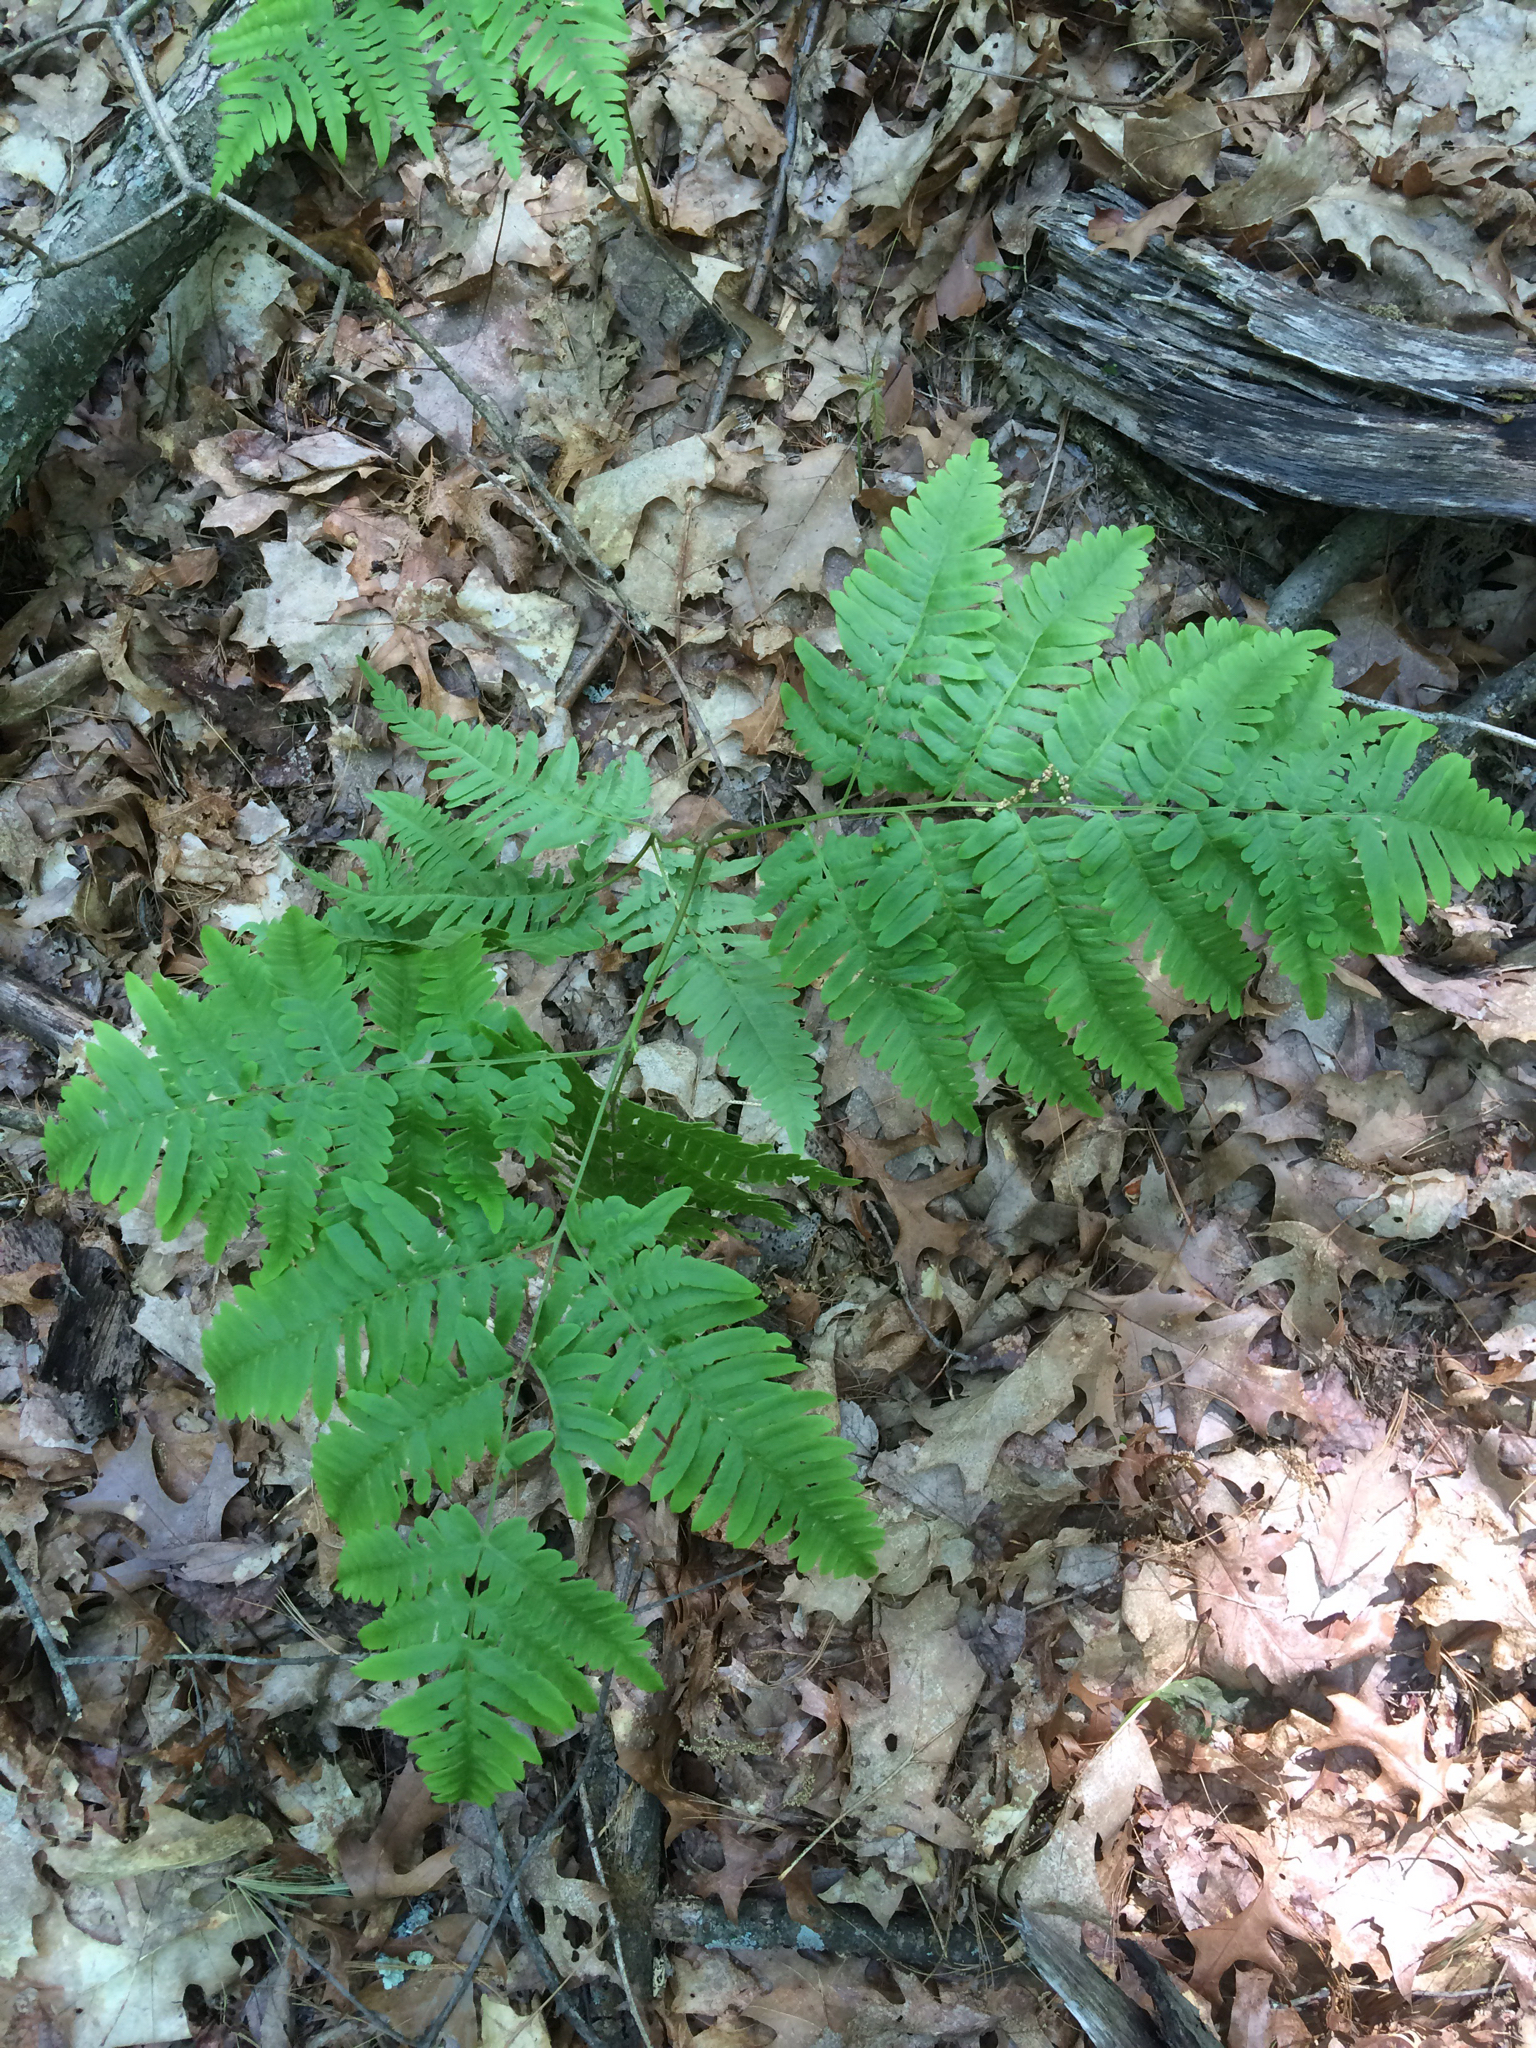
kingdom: Plantae
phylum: Tracheophyta
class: Polypodiopsida
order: Polypodiales
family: Dennstaedtiaceae
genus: Pteridium
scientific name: Pteridium aquilinum
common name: Bracken
